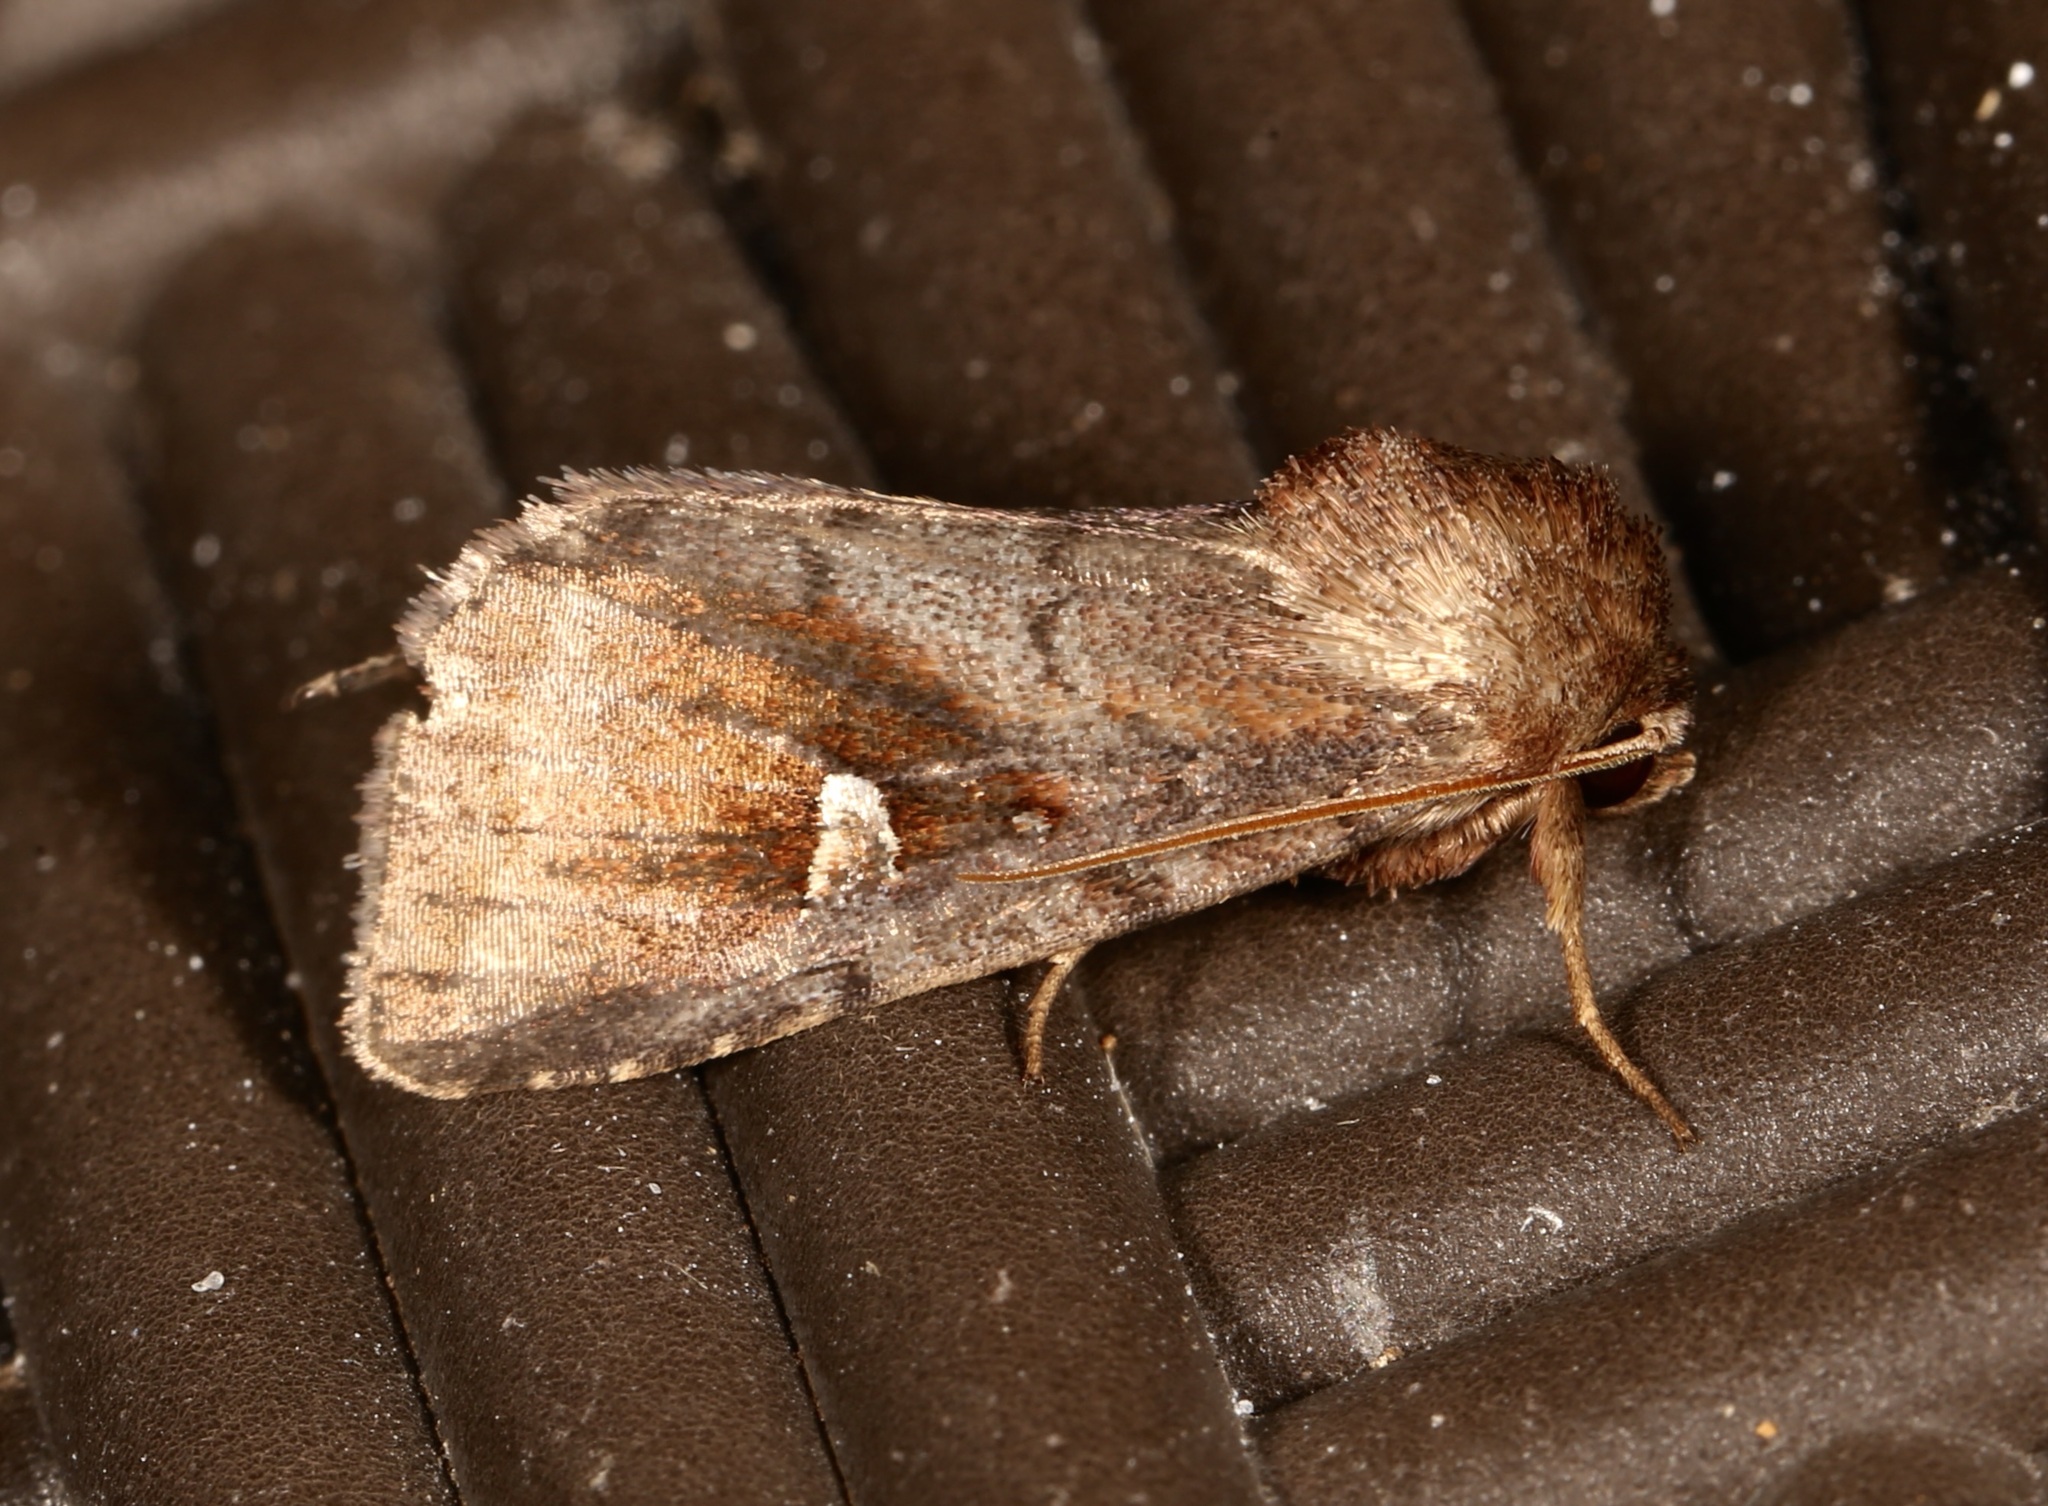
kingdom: Animalia
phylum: Arthropoda
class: Insecta
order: Lepidoptera
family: Noctuidae
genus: Iodopepla
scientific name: Iodopepla ualbum
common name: White-eyed borer moth
